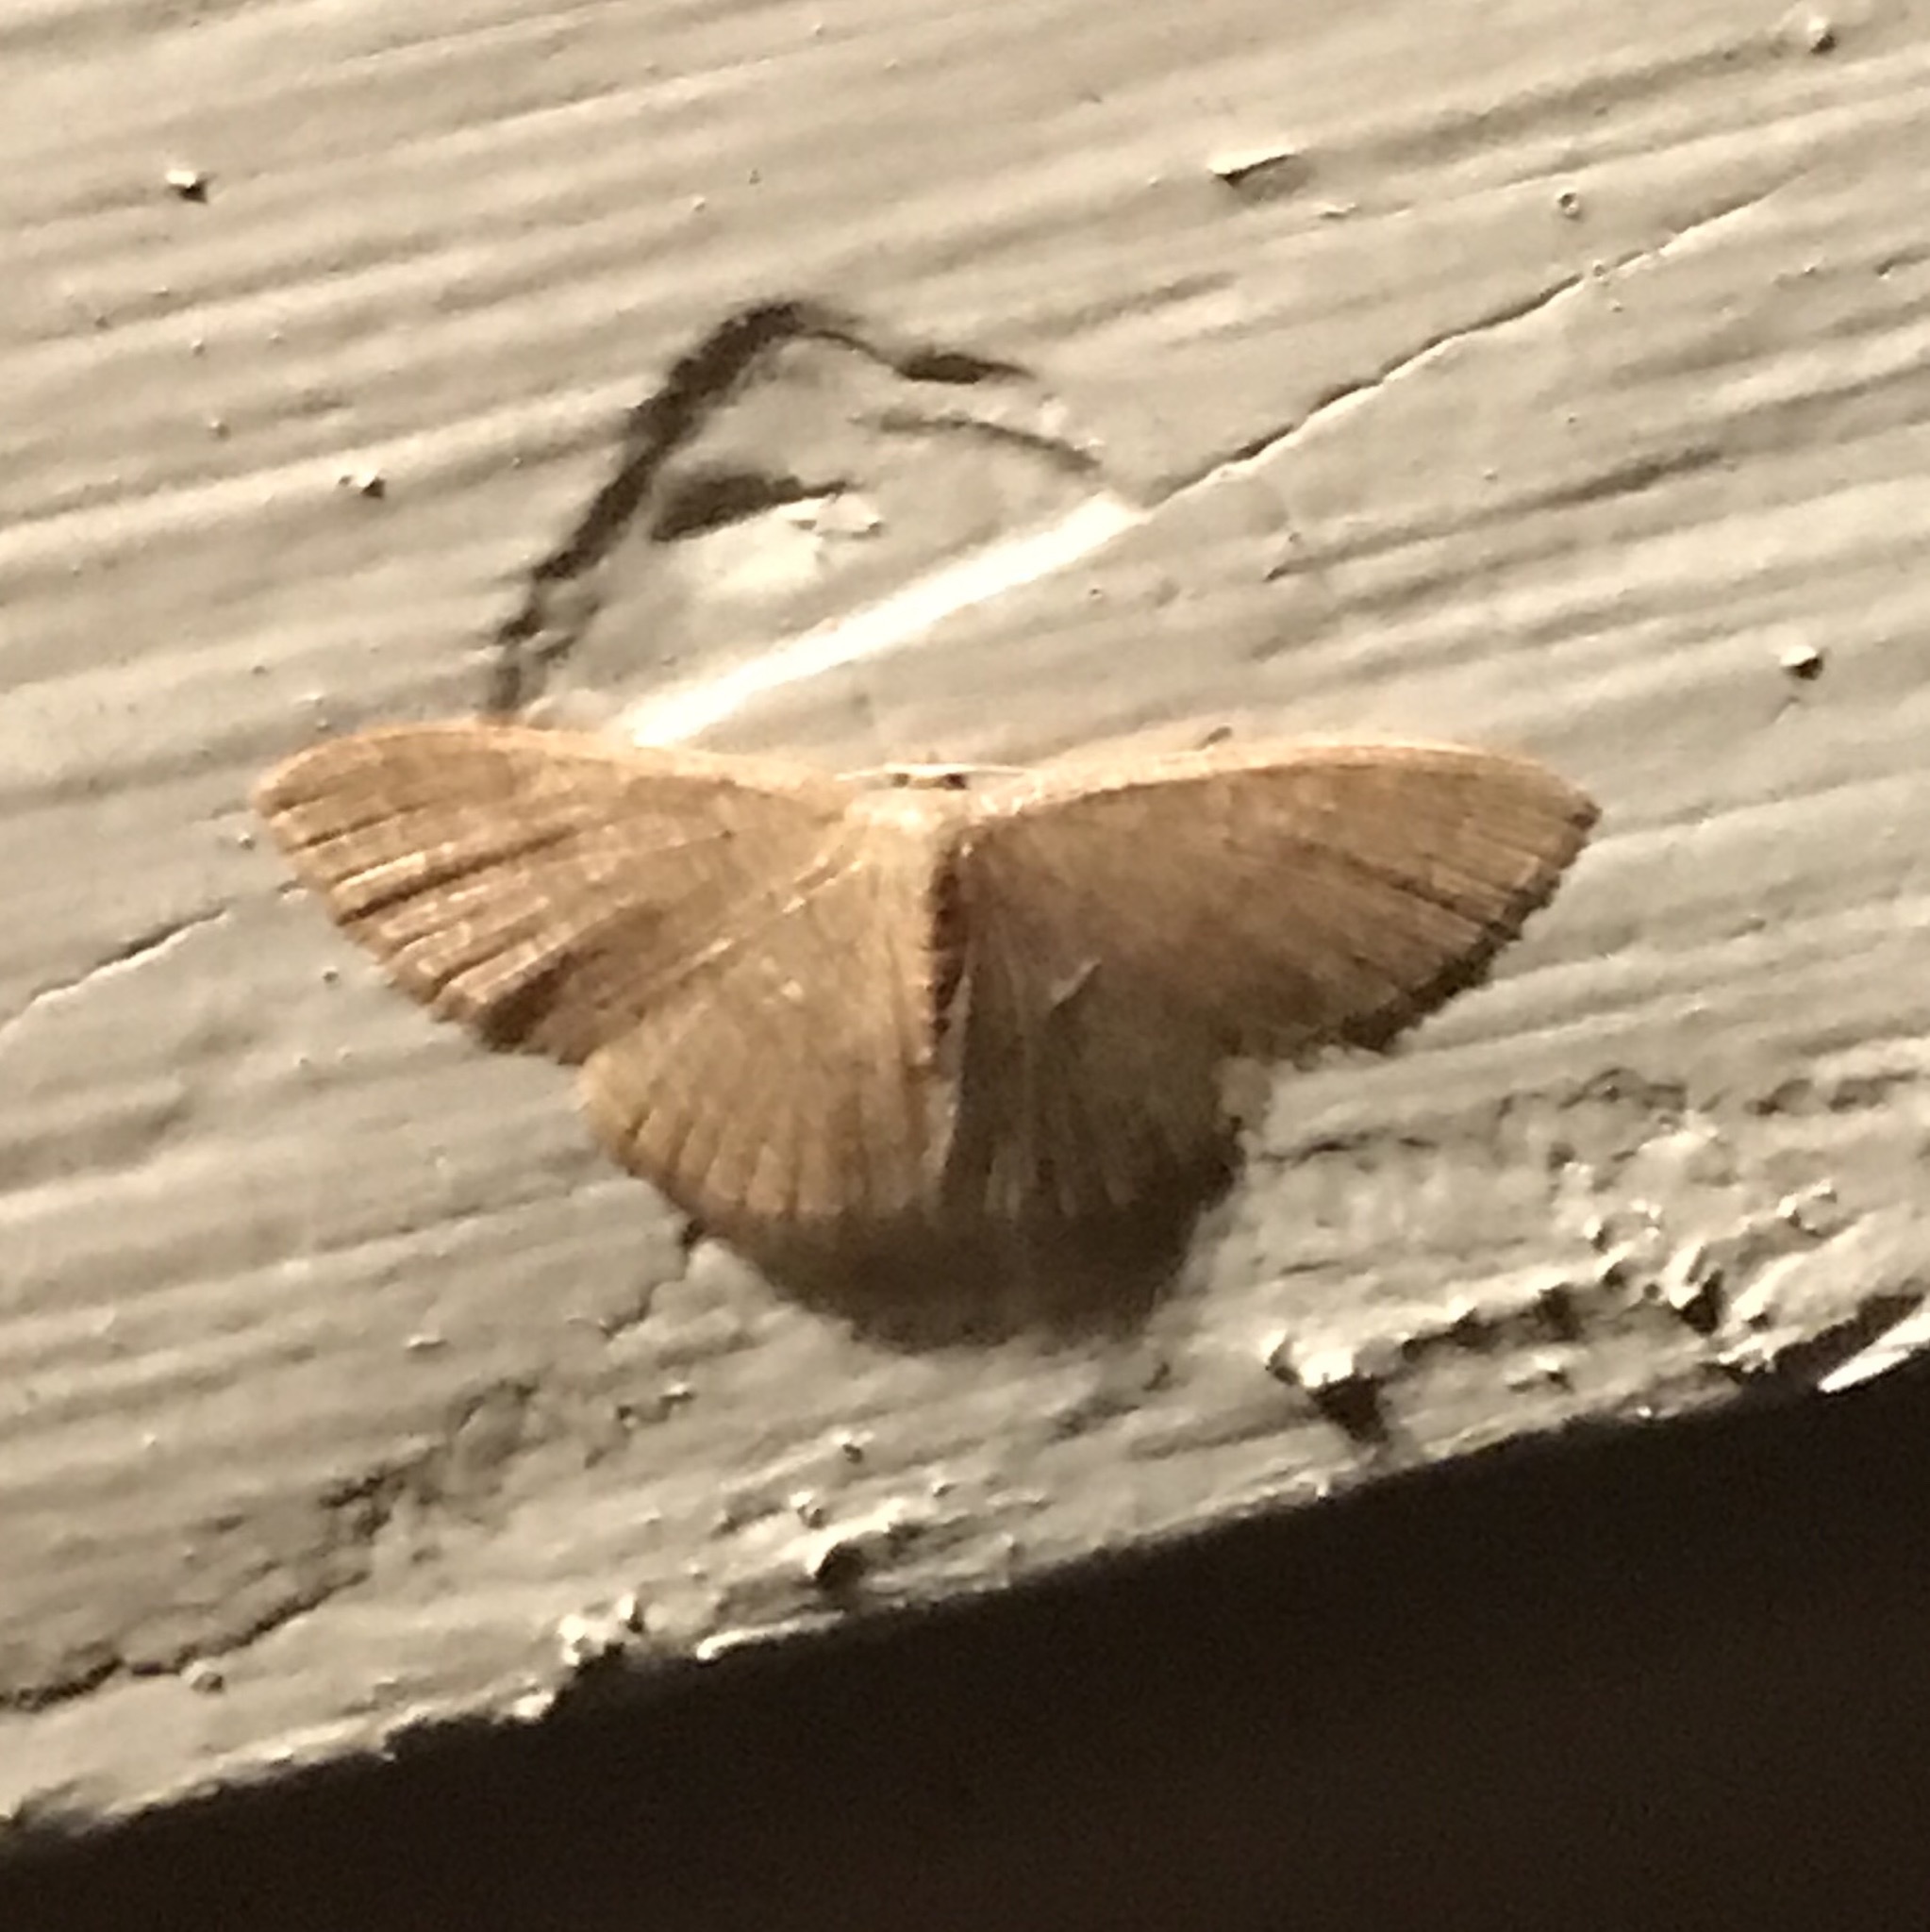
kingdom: Animalia
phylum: Arthropoda
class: Insecta
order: Lepidoptera
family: Geometridae
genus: Pleuroprucha
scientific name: Pleuroprucha insulsaria
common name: Common tan wave
